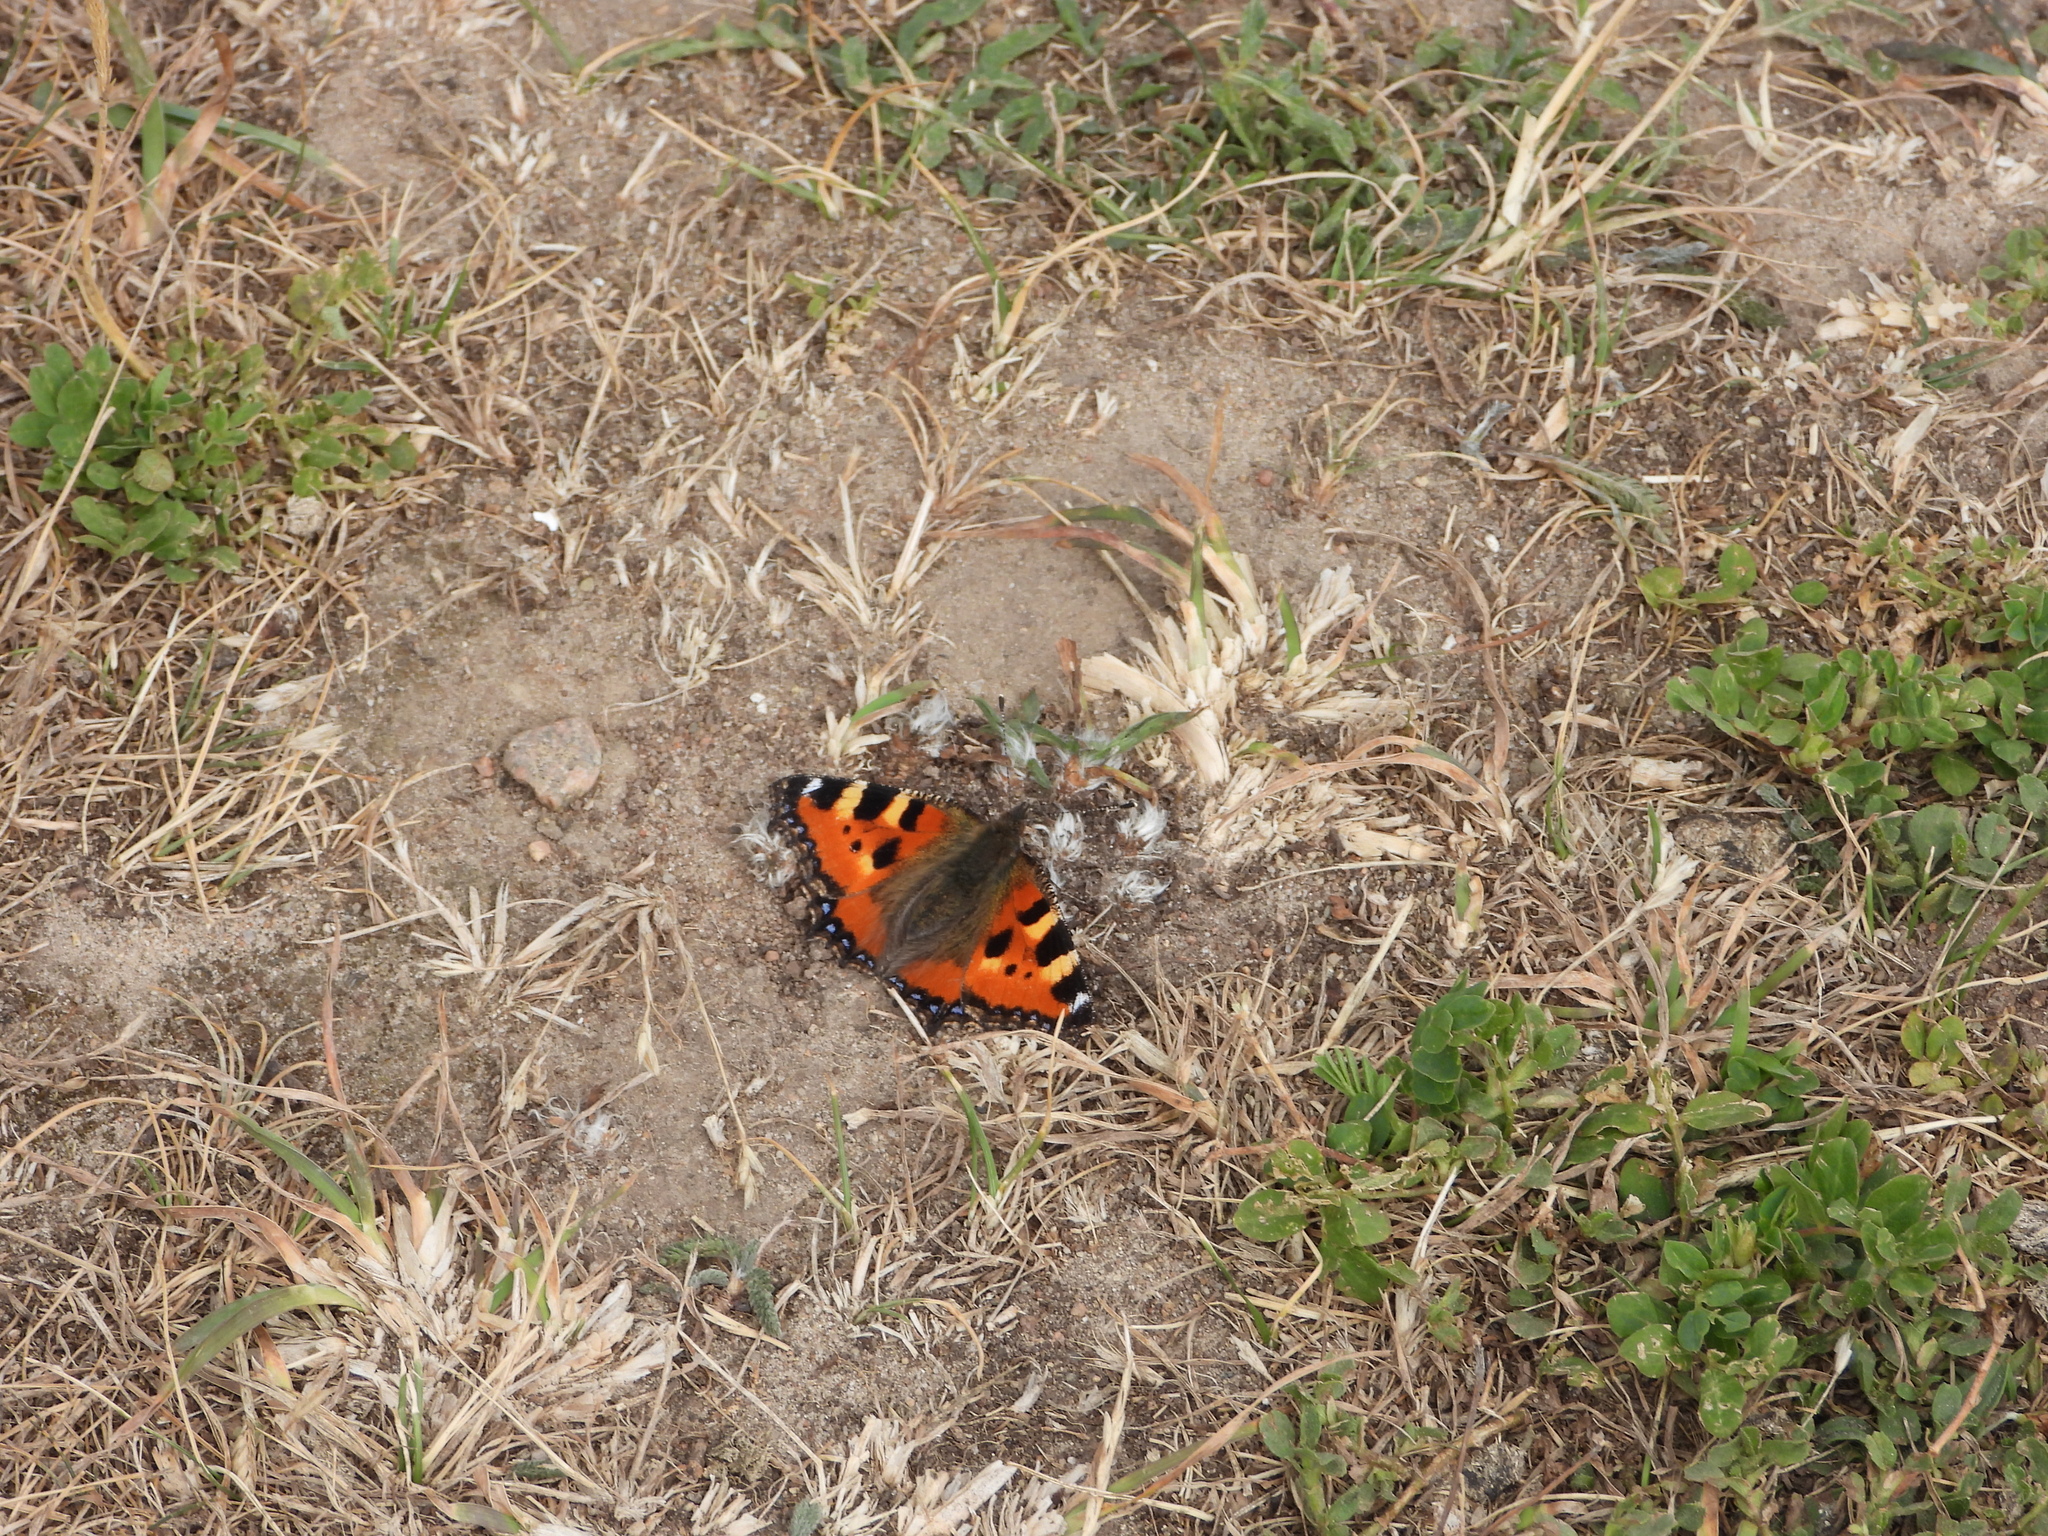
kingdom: Animalia
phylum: Arthropoda
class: Insecta
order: Lepidoptera
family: Nymphalidae
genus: Aglais
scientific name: Aglais urticae
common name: Small tortoiseshell
